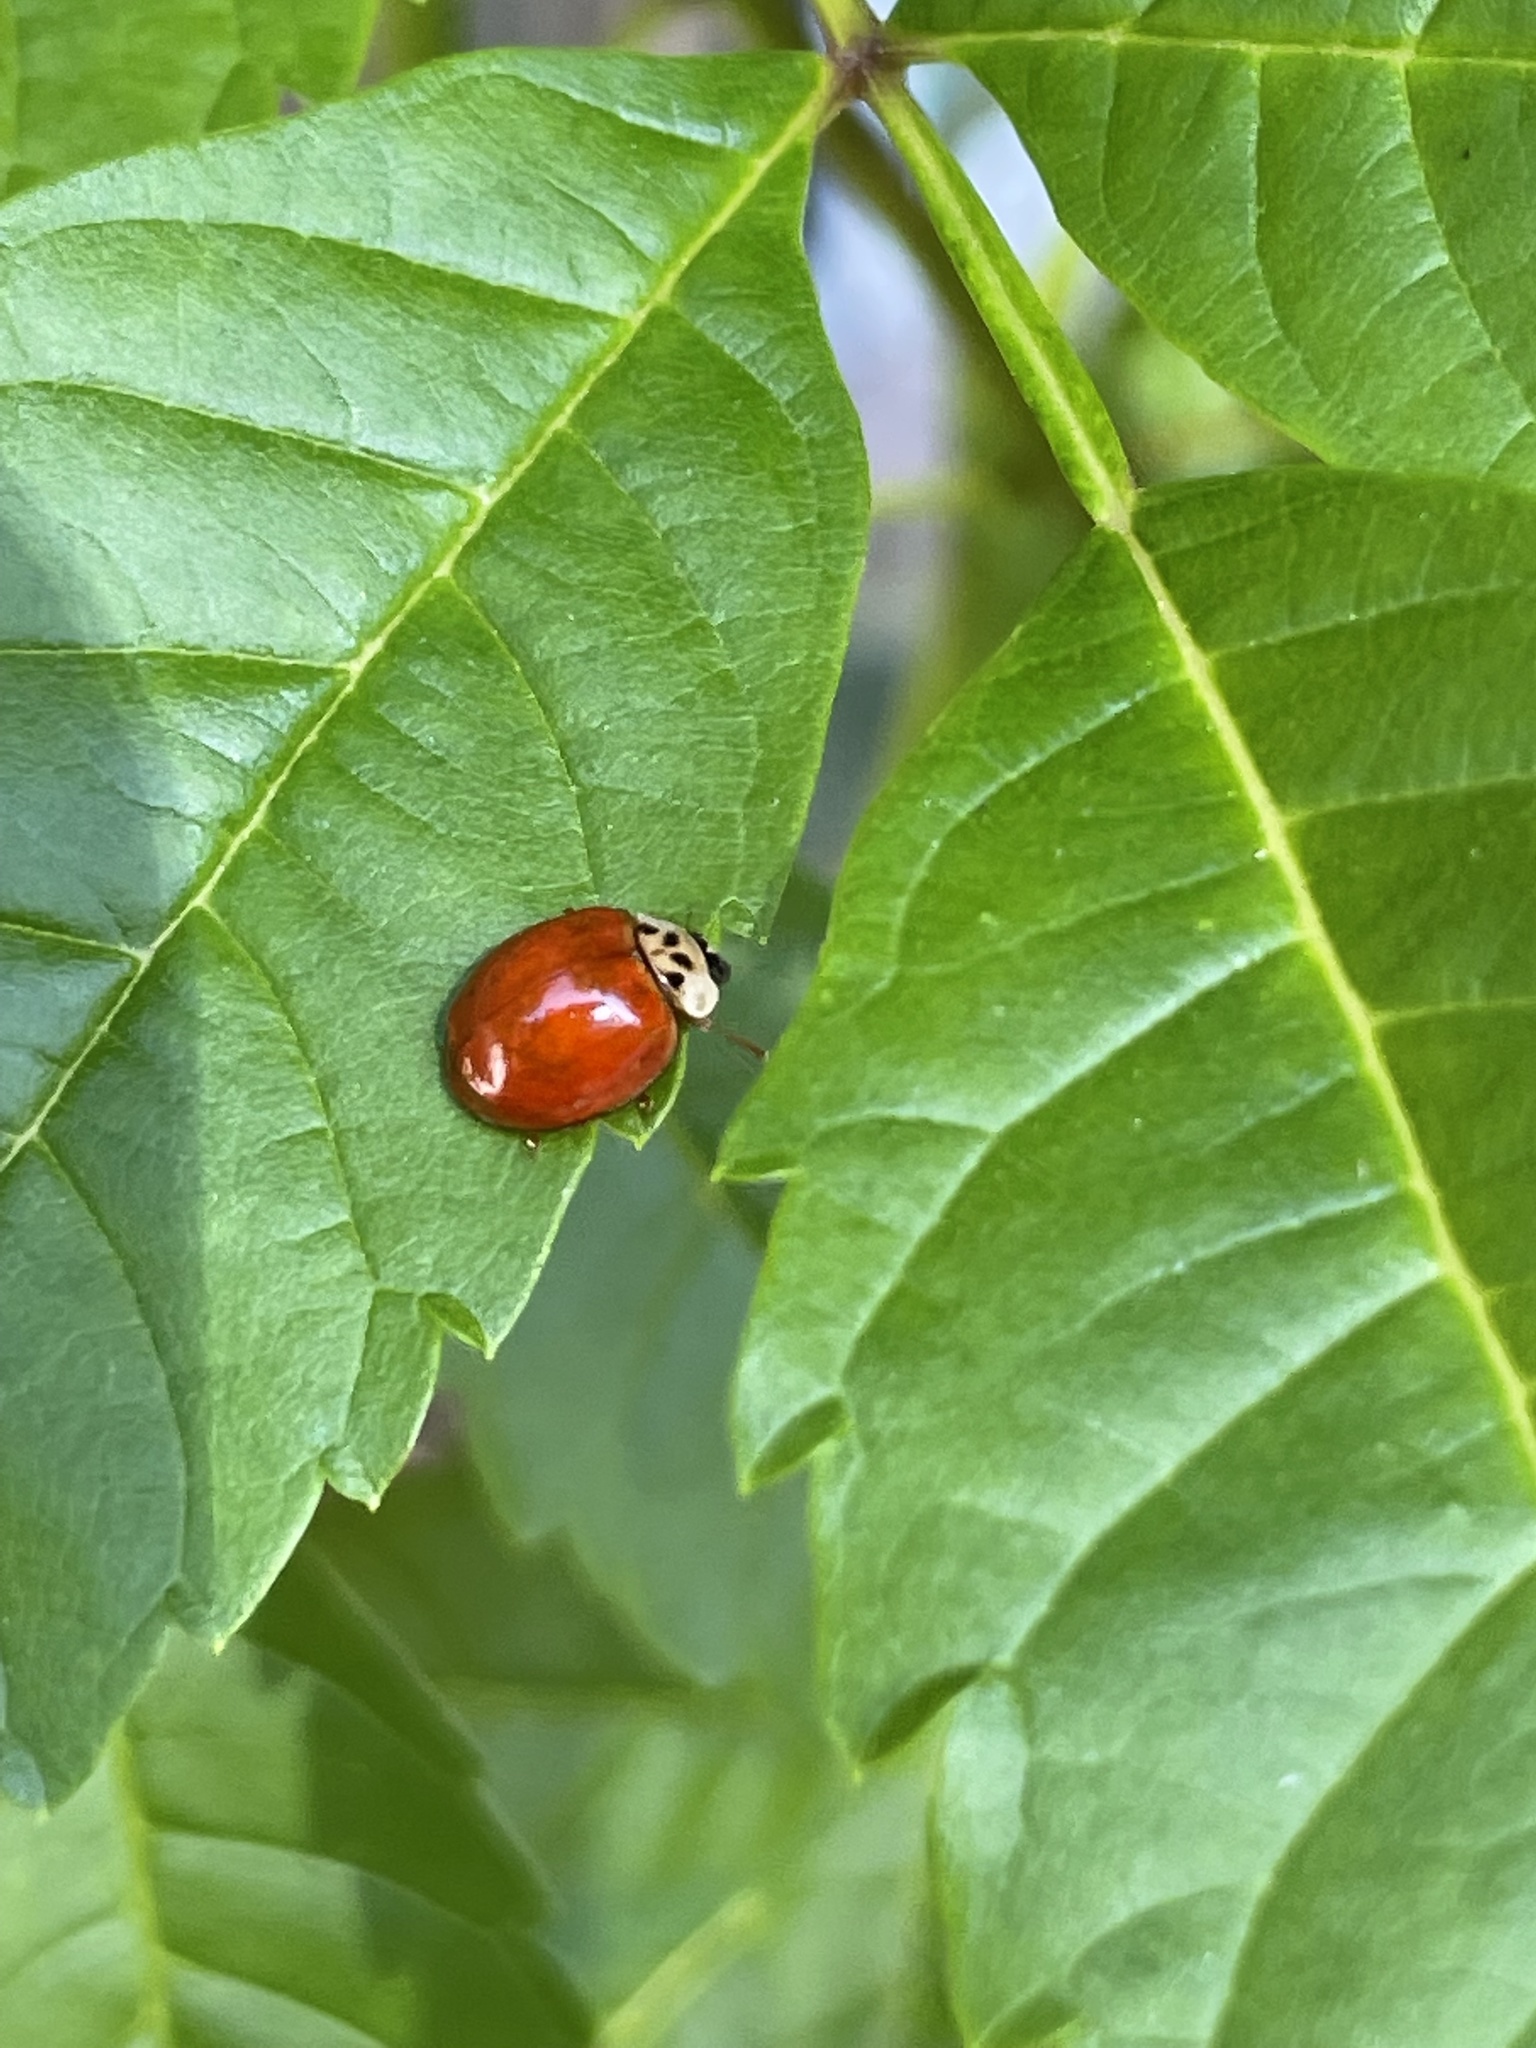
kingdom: Animalia
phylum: Arthropoda
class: Insecta
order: Coleoptera
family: Coccinellidae
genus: Harmonia
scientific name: Harmonia axyridis
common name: Harlequin ladybird
